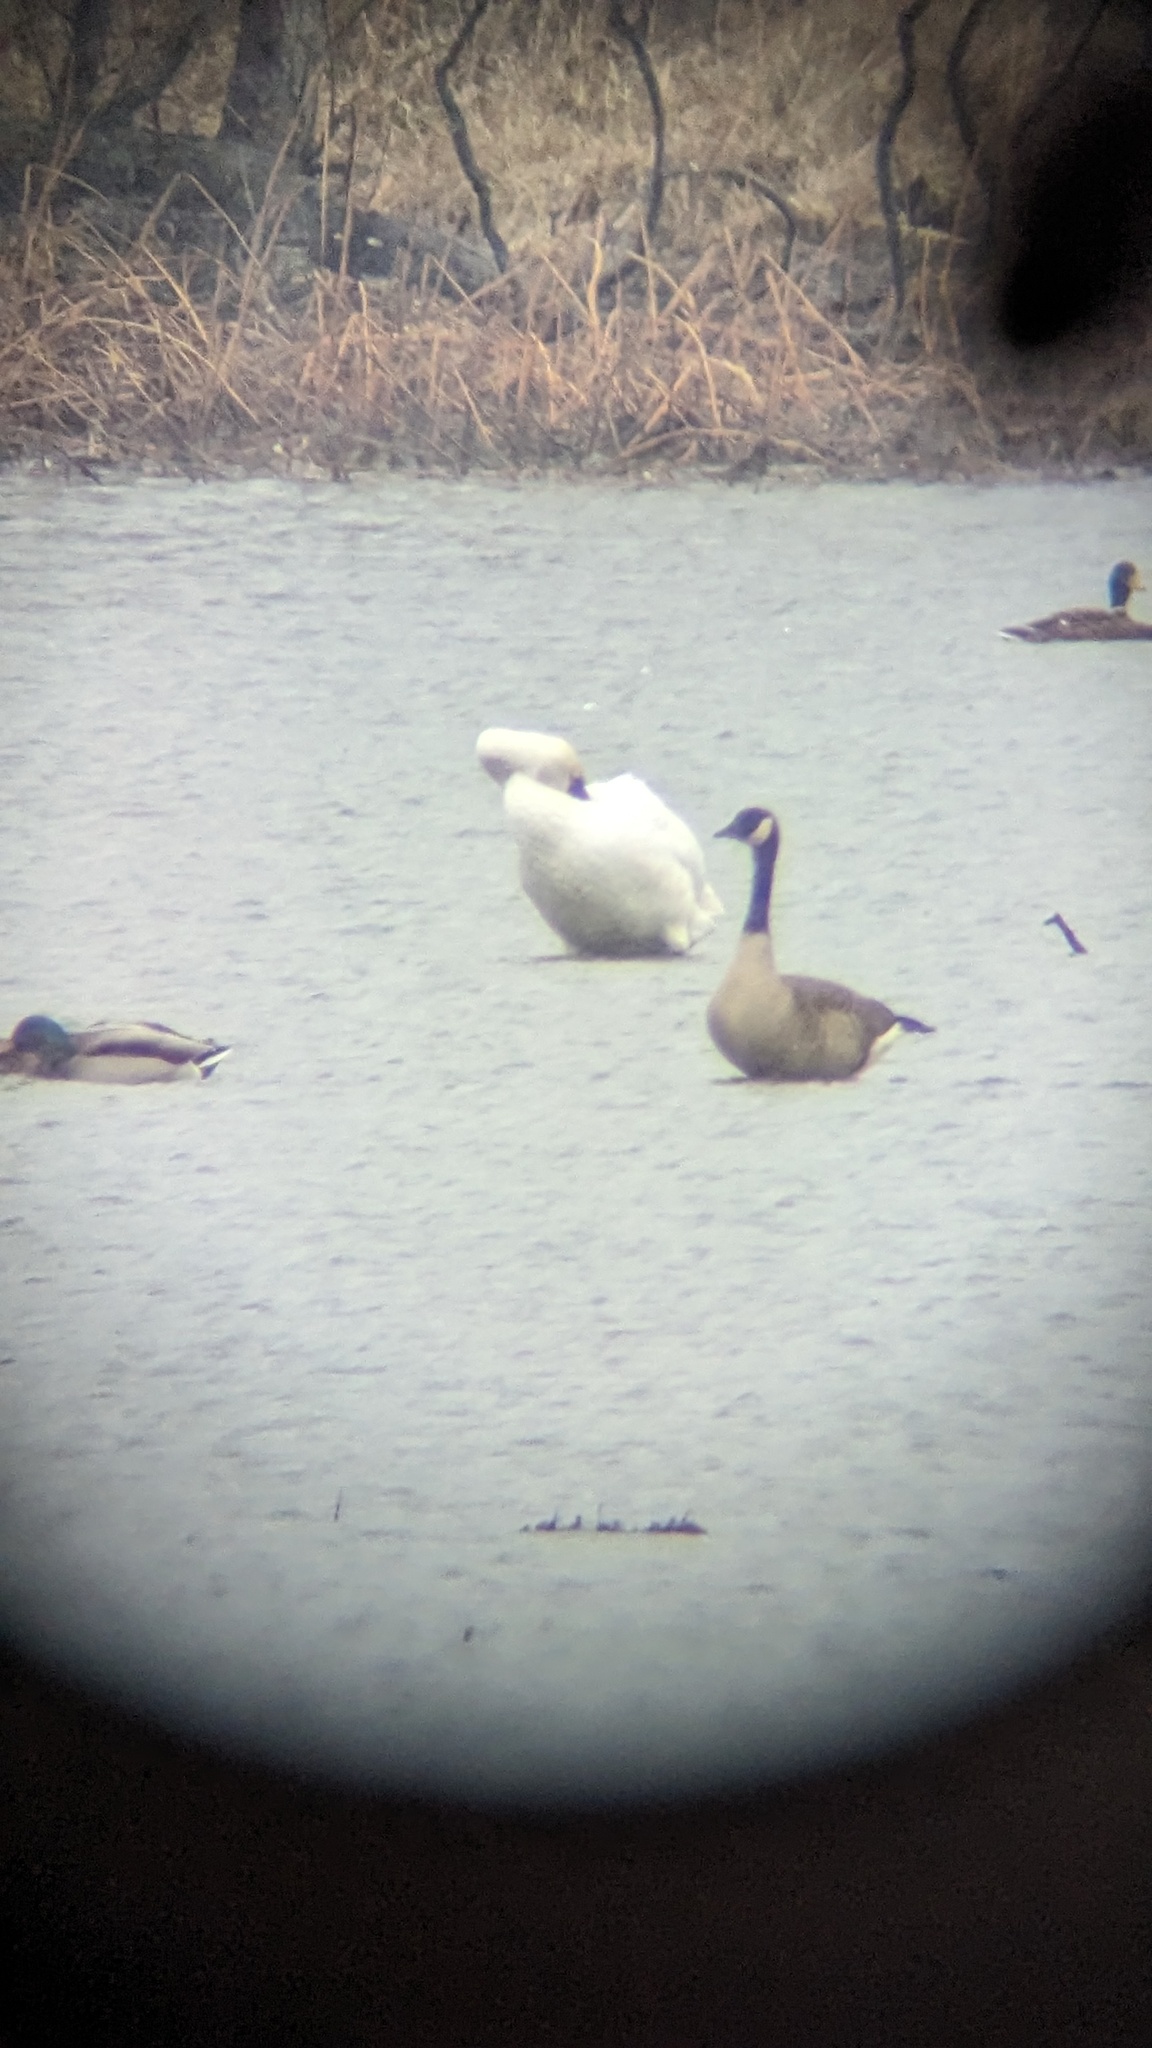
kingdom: Animalia
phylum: Chordata
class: Aves
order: Anseriformes
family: Anatidae
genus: Branta
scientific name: Branta canadensis
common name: Canada goose
